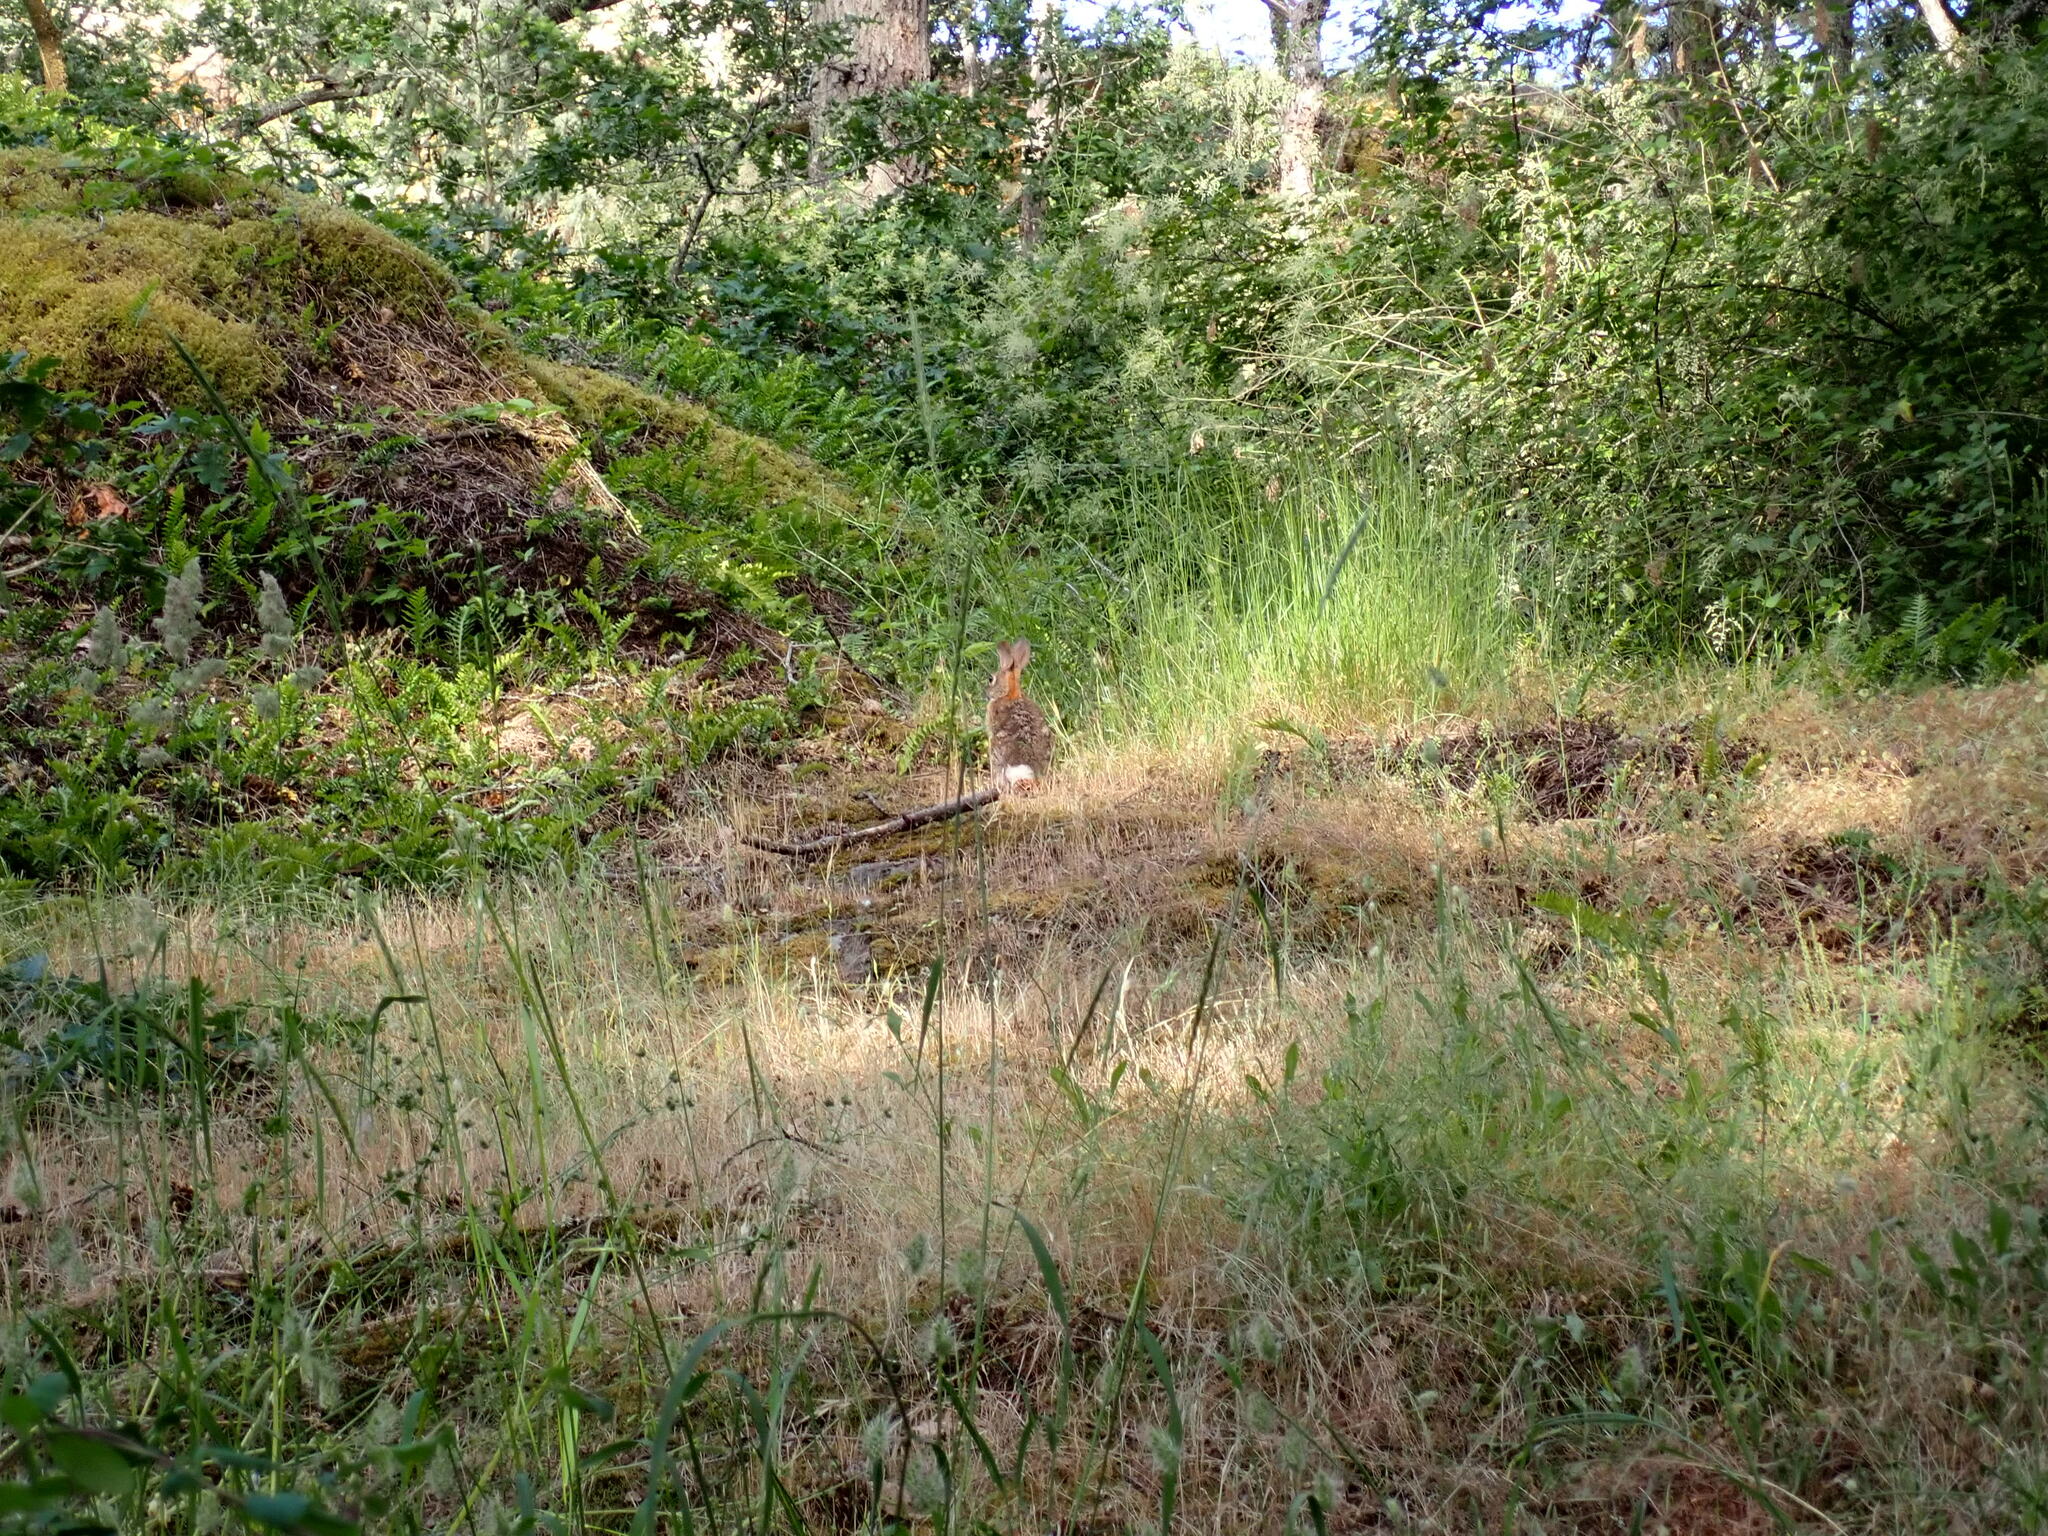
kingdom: Animalia
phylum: Chordata
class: Mammalia
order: Lagomorpha
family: Leporidae
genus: Sylvilagus
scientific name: Sylvilagus floridanus
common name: Eastern cottontail
